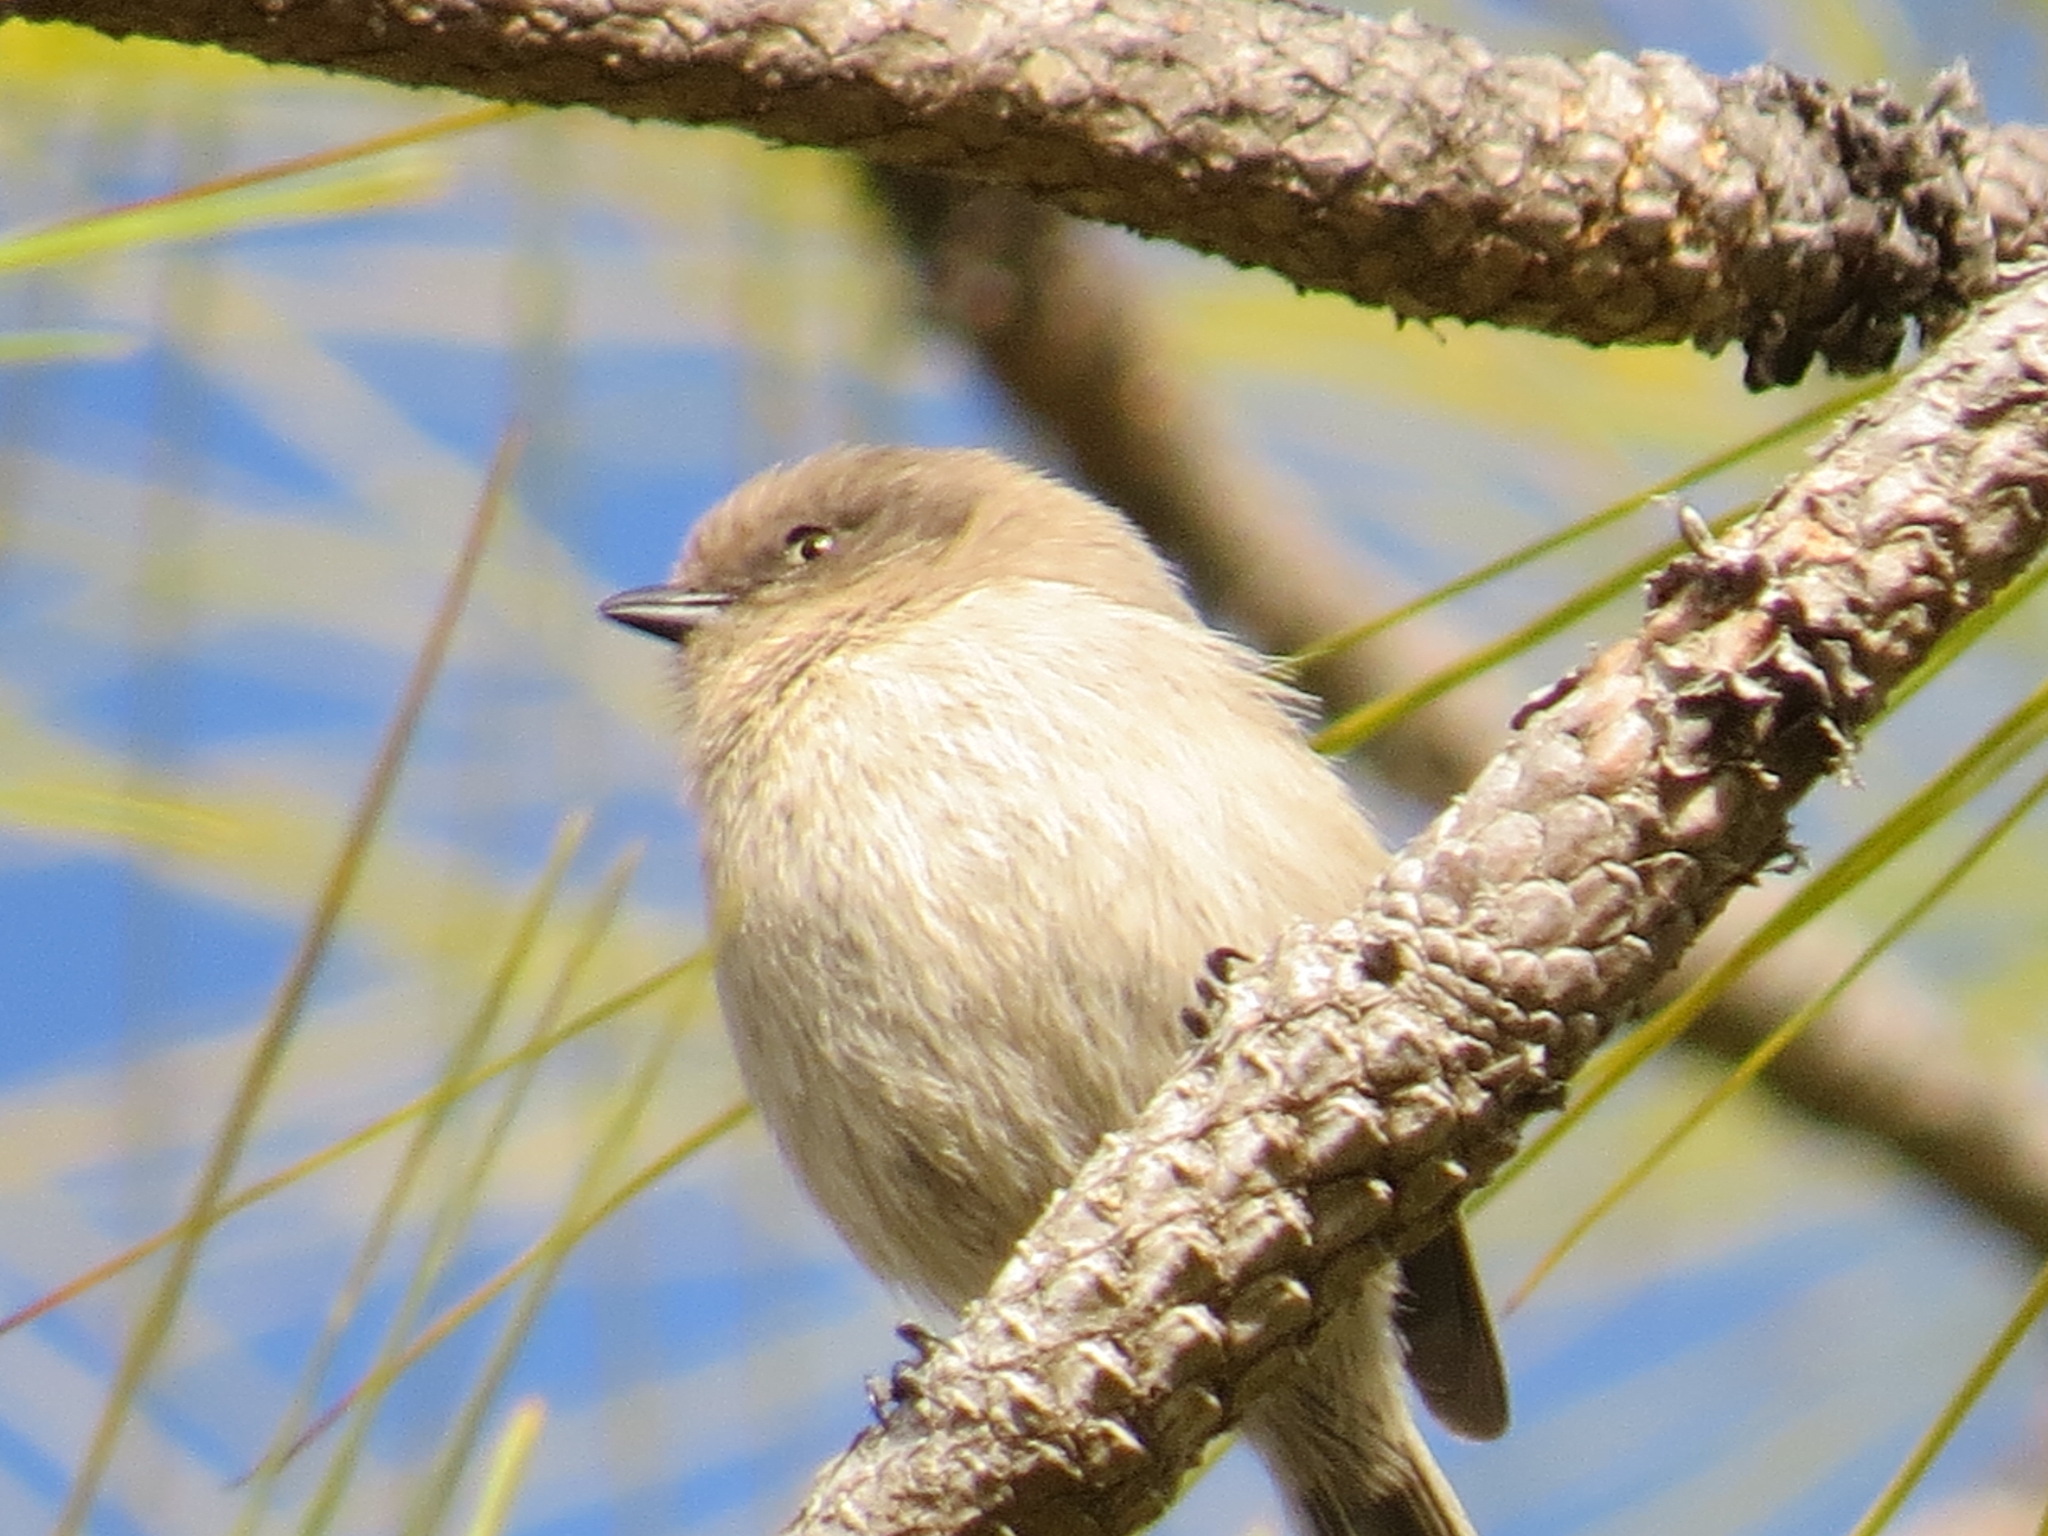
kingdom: Animalia
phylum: Chordata
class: Aves
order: Passeriformes
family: Aegithalidae
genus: Psaltriparus
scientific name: Psaltriparus minimus
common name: American bushtit
